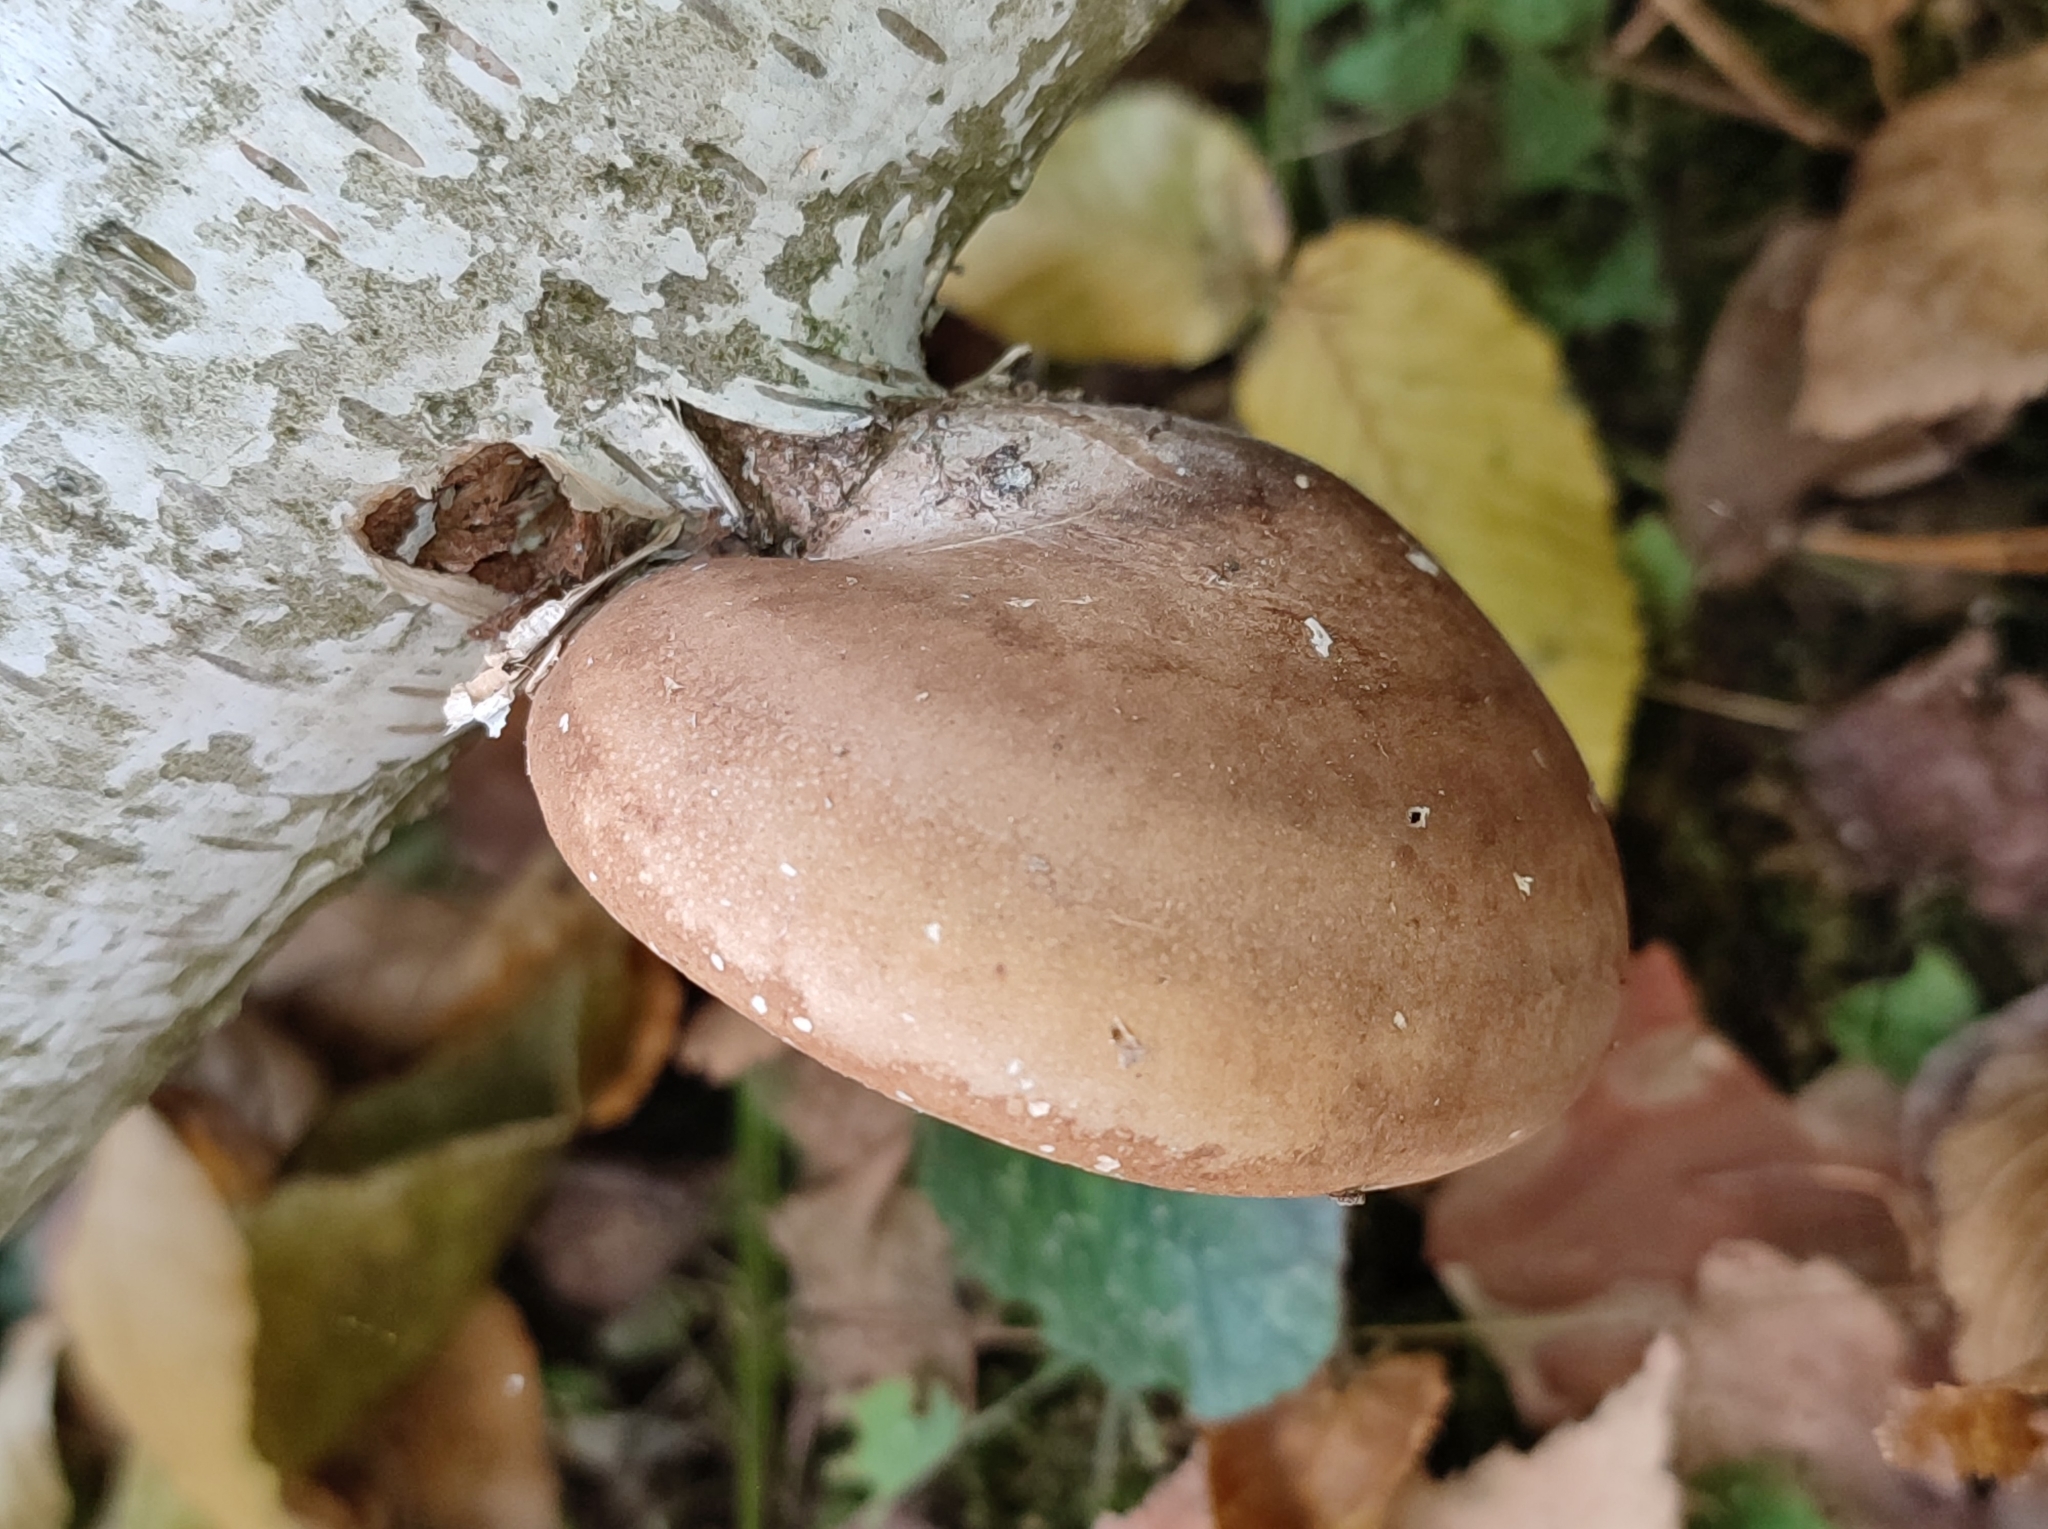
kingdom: Fungi
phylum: Basidiomycota
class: Agaricomycetes
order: Polyporales
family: Fomitopsidaceae
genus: Fomitopsis
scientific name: Fomitopsis betulina
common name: Birch polypore
